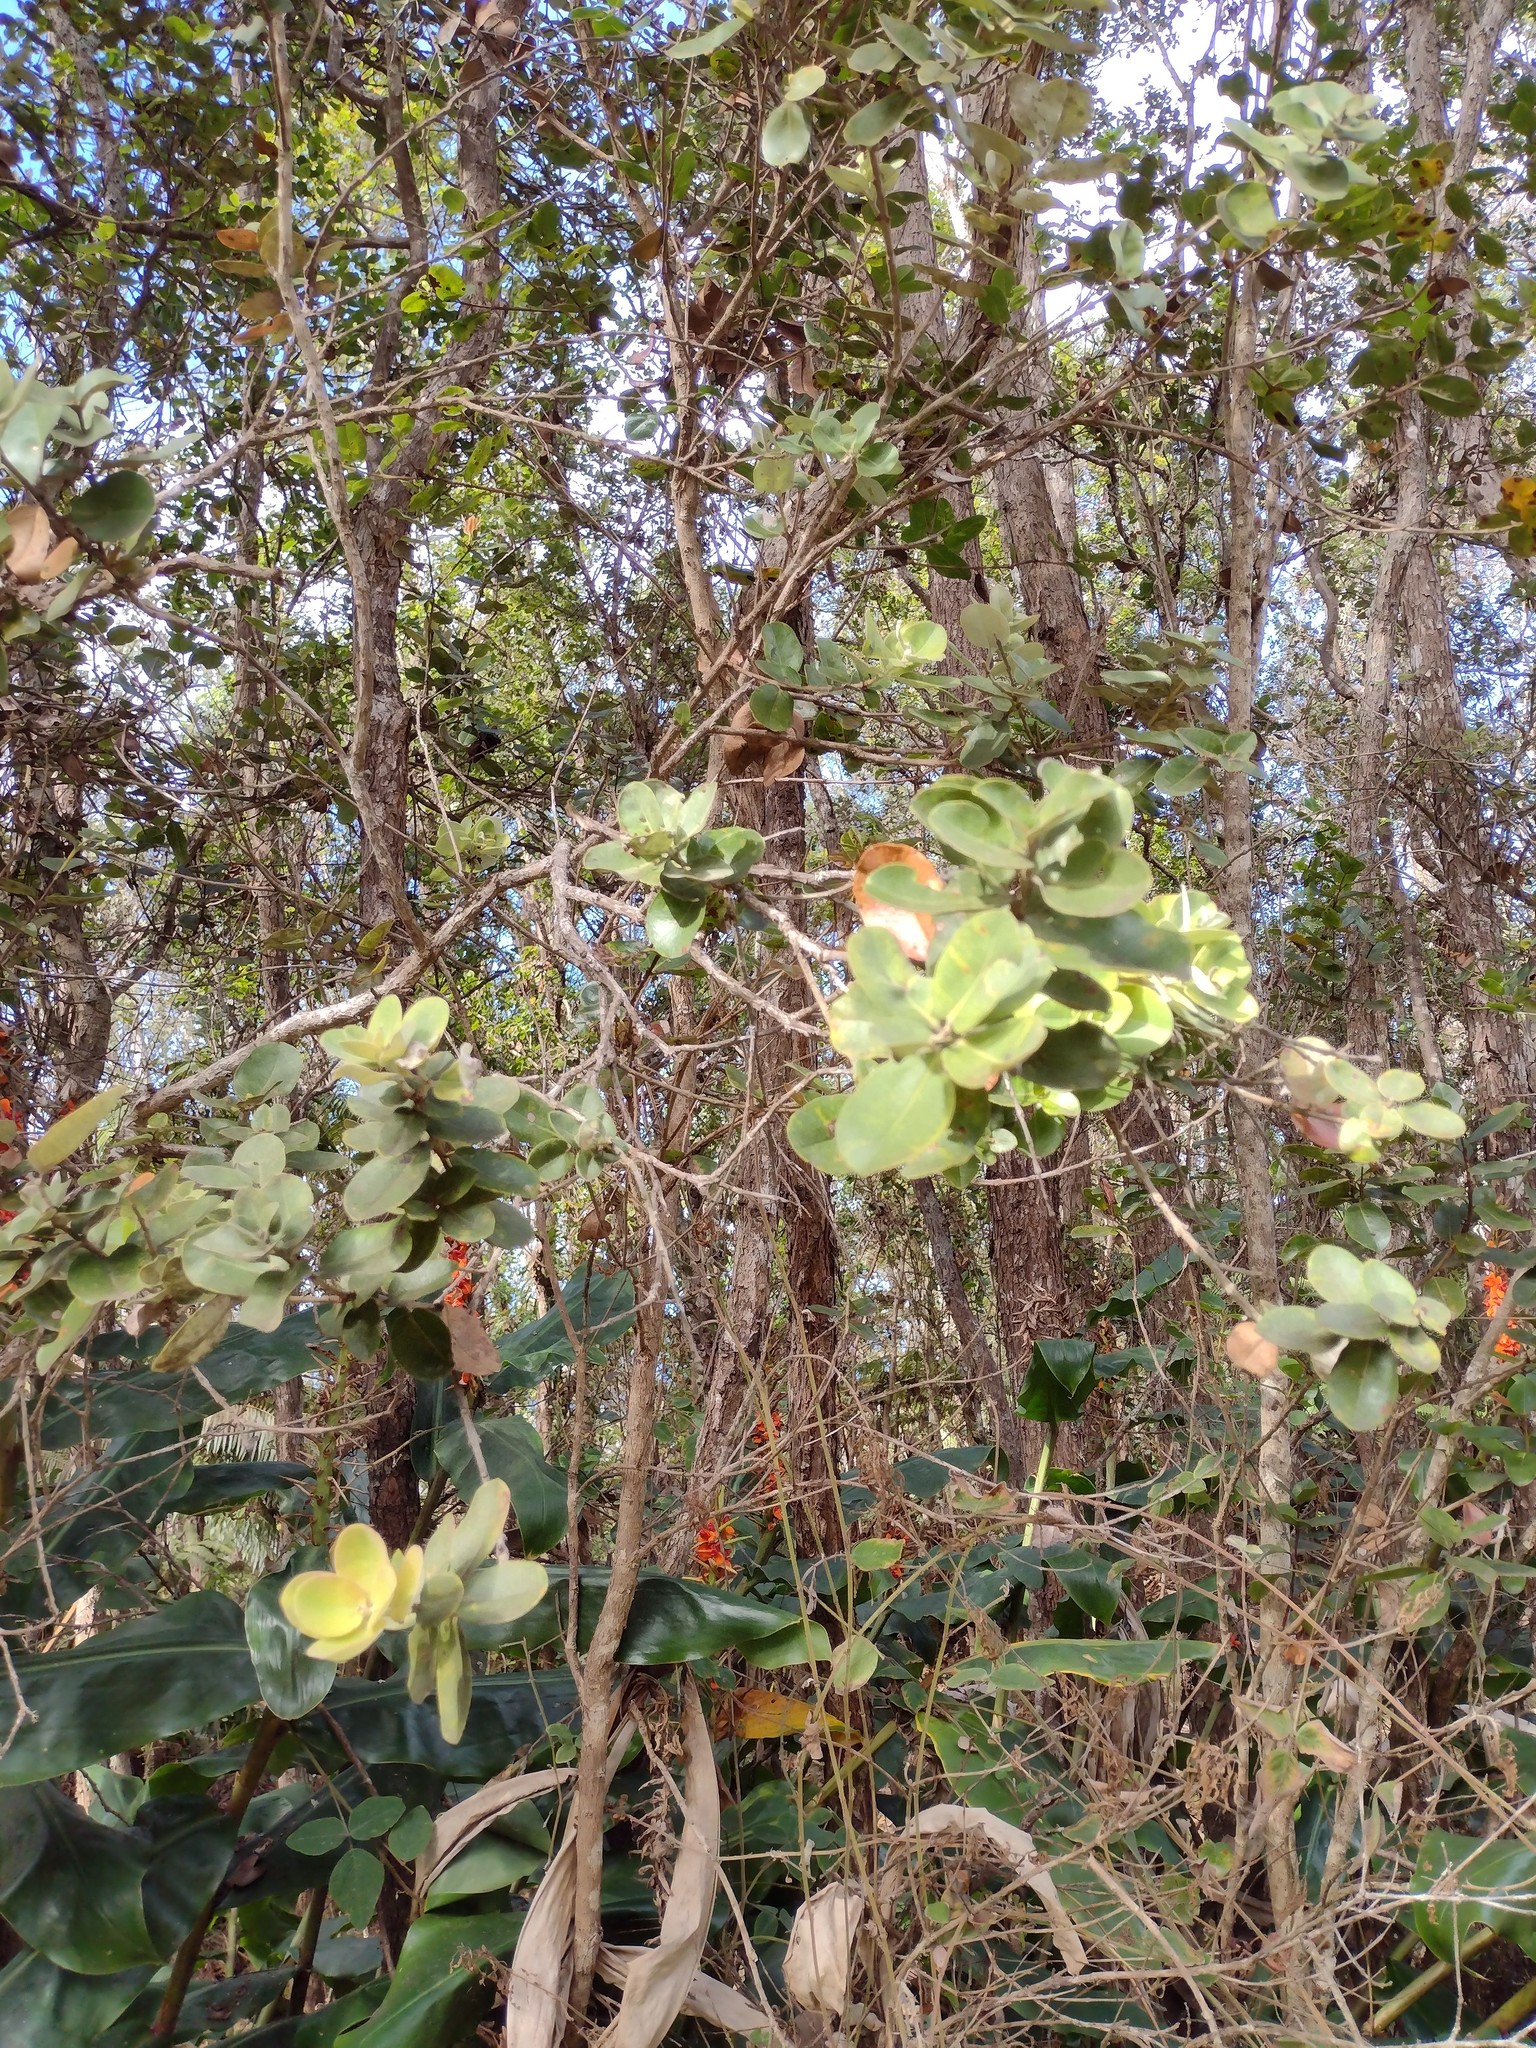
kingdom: Plantae
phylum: Tracheophyta
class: Magnoliopsida
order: Myrtales
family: Myrtaceae
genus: Metrosideros
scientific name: Metrosideros polymorpha
